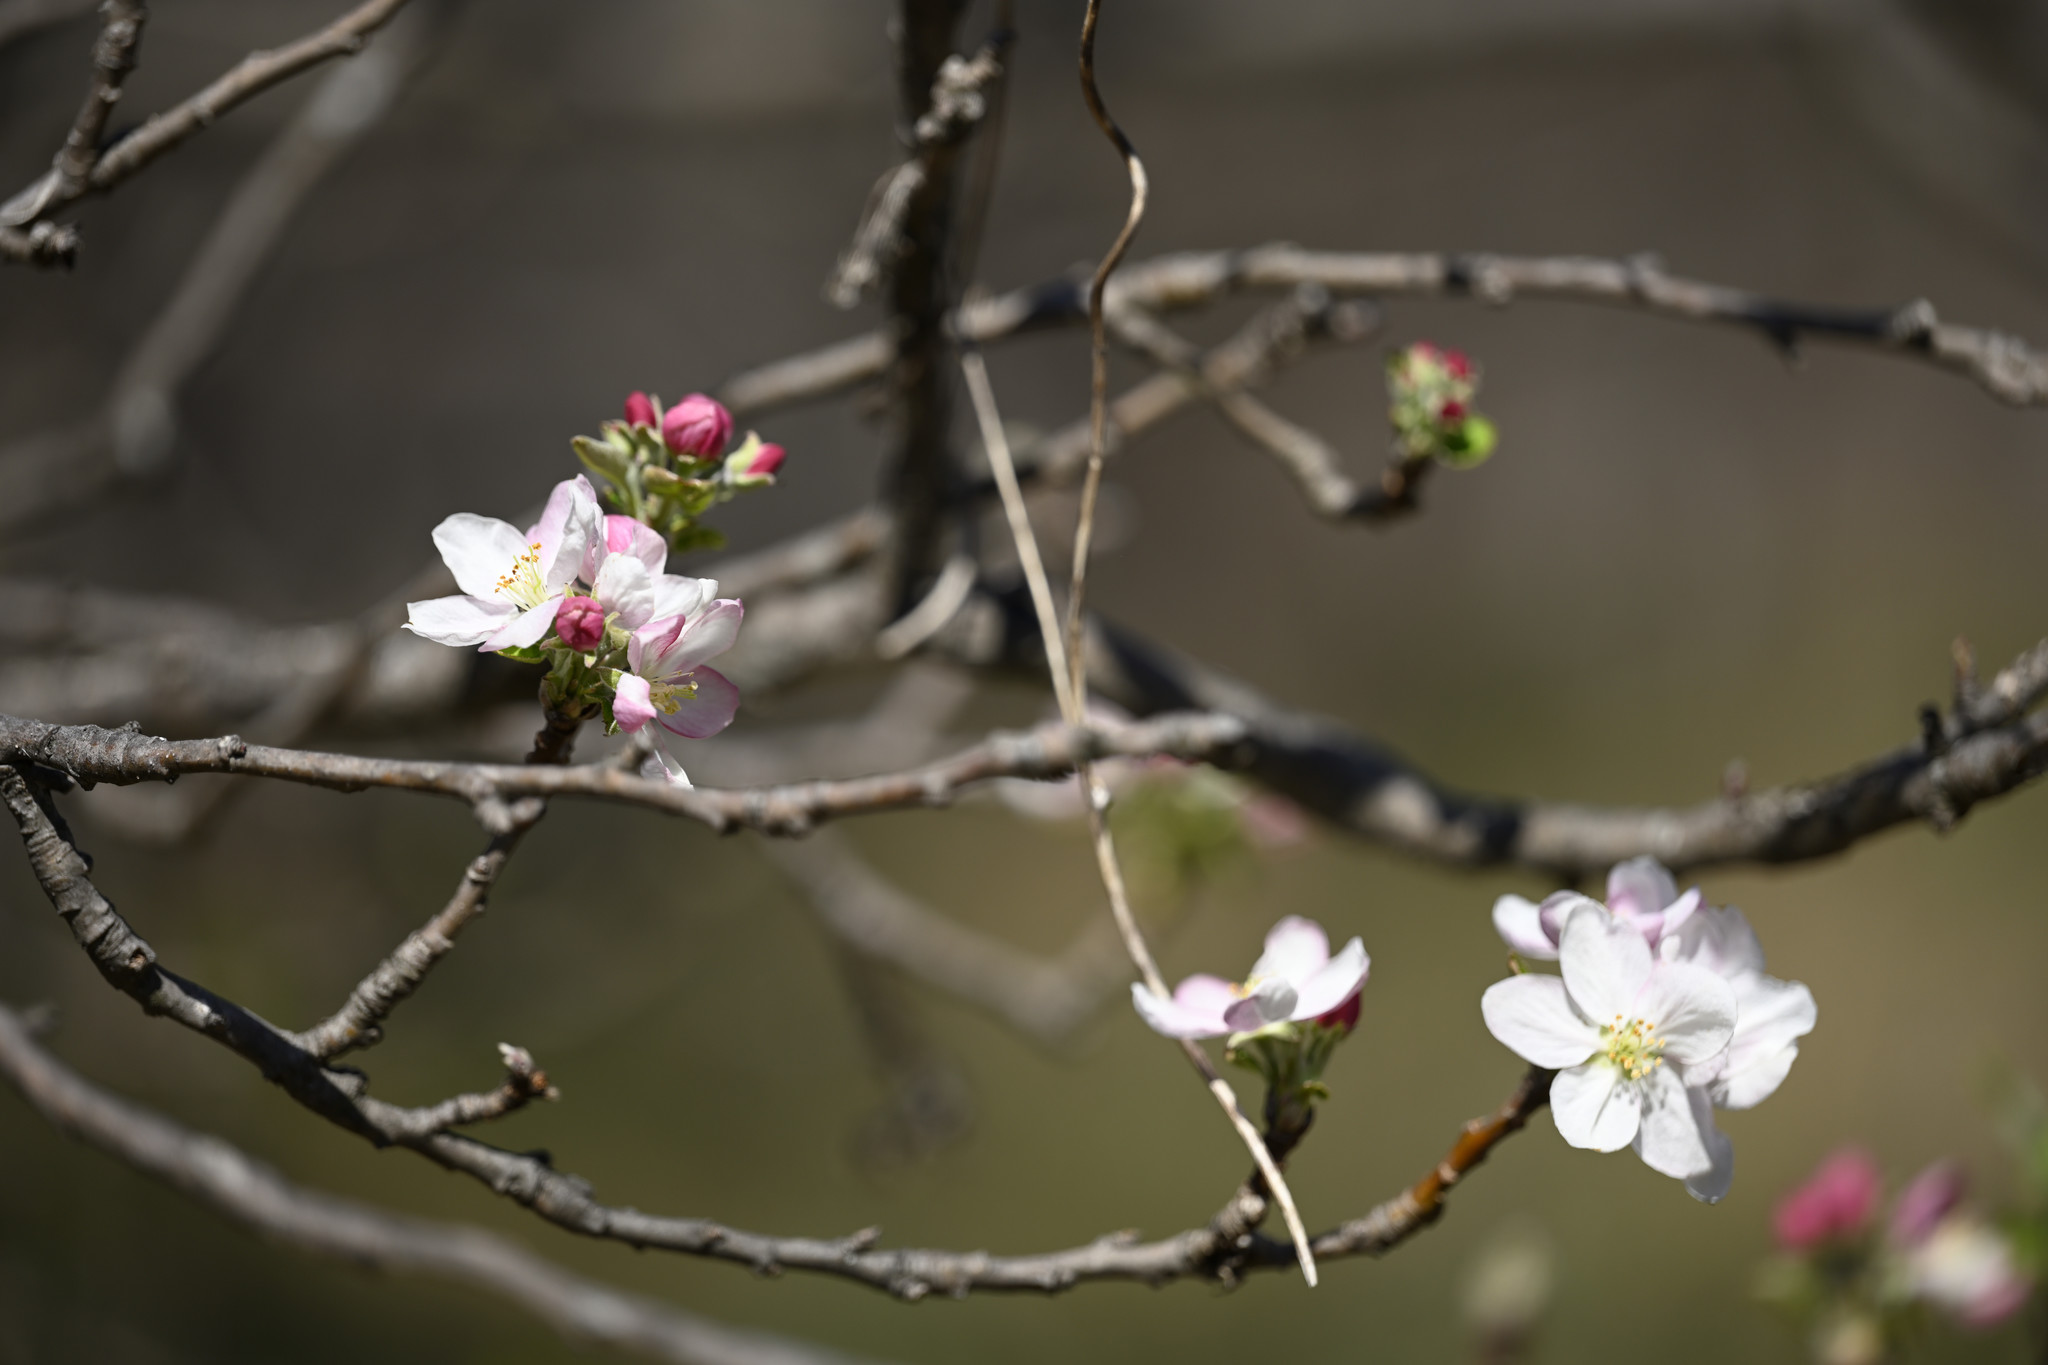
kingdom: Plantae
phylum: Tracheophyta
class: Magnoliopsida
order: Rosales
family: Rosaceae
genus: Prunus
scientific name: Prunus mexicana
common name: Mexican plum
